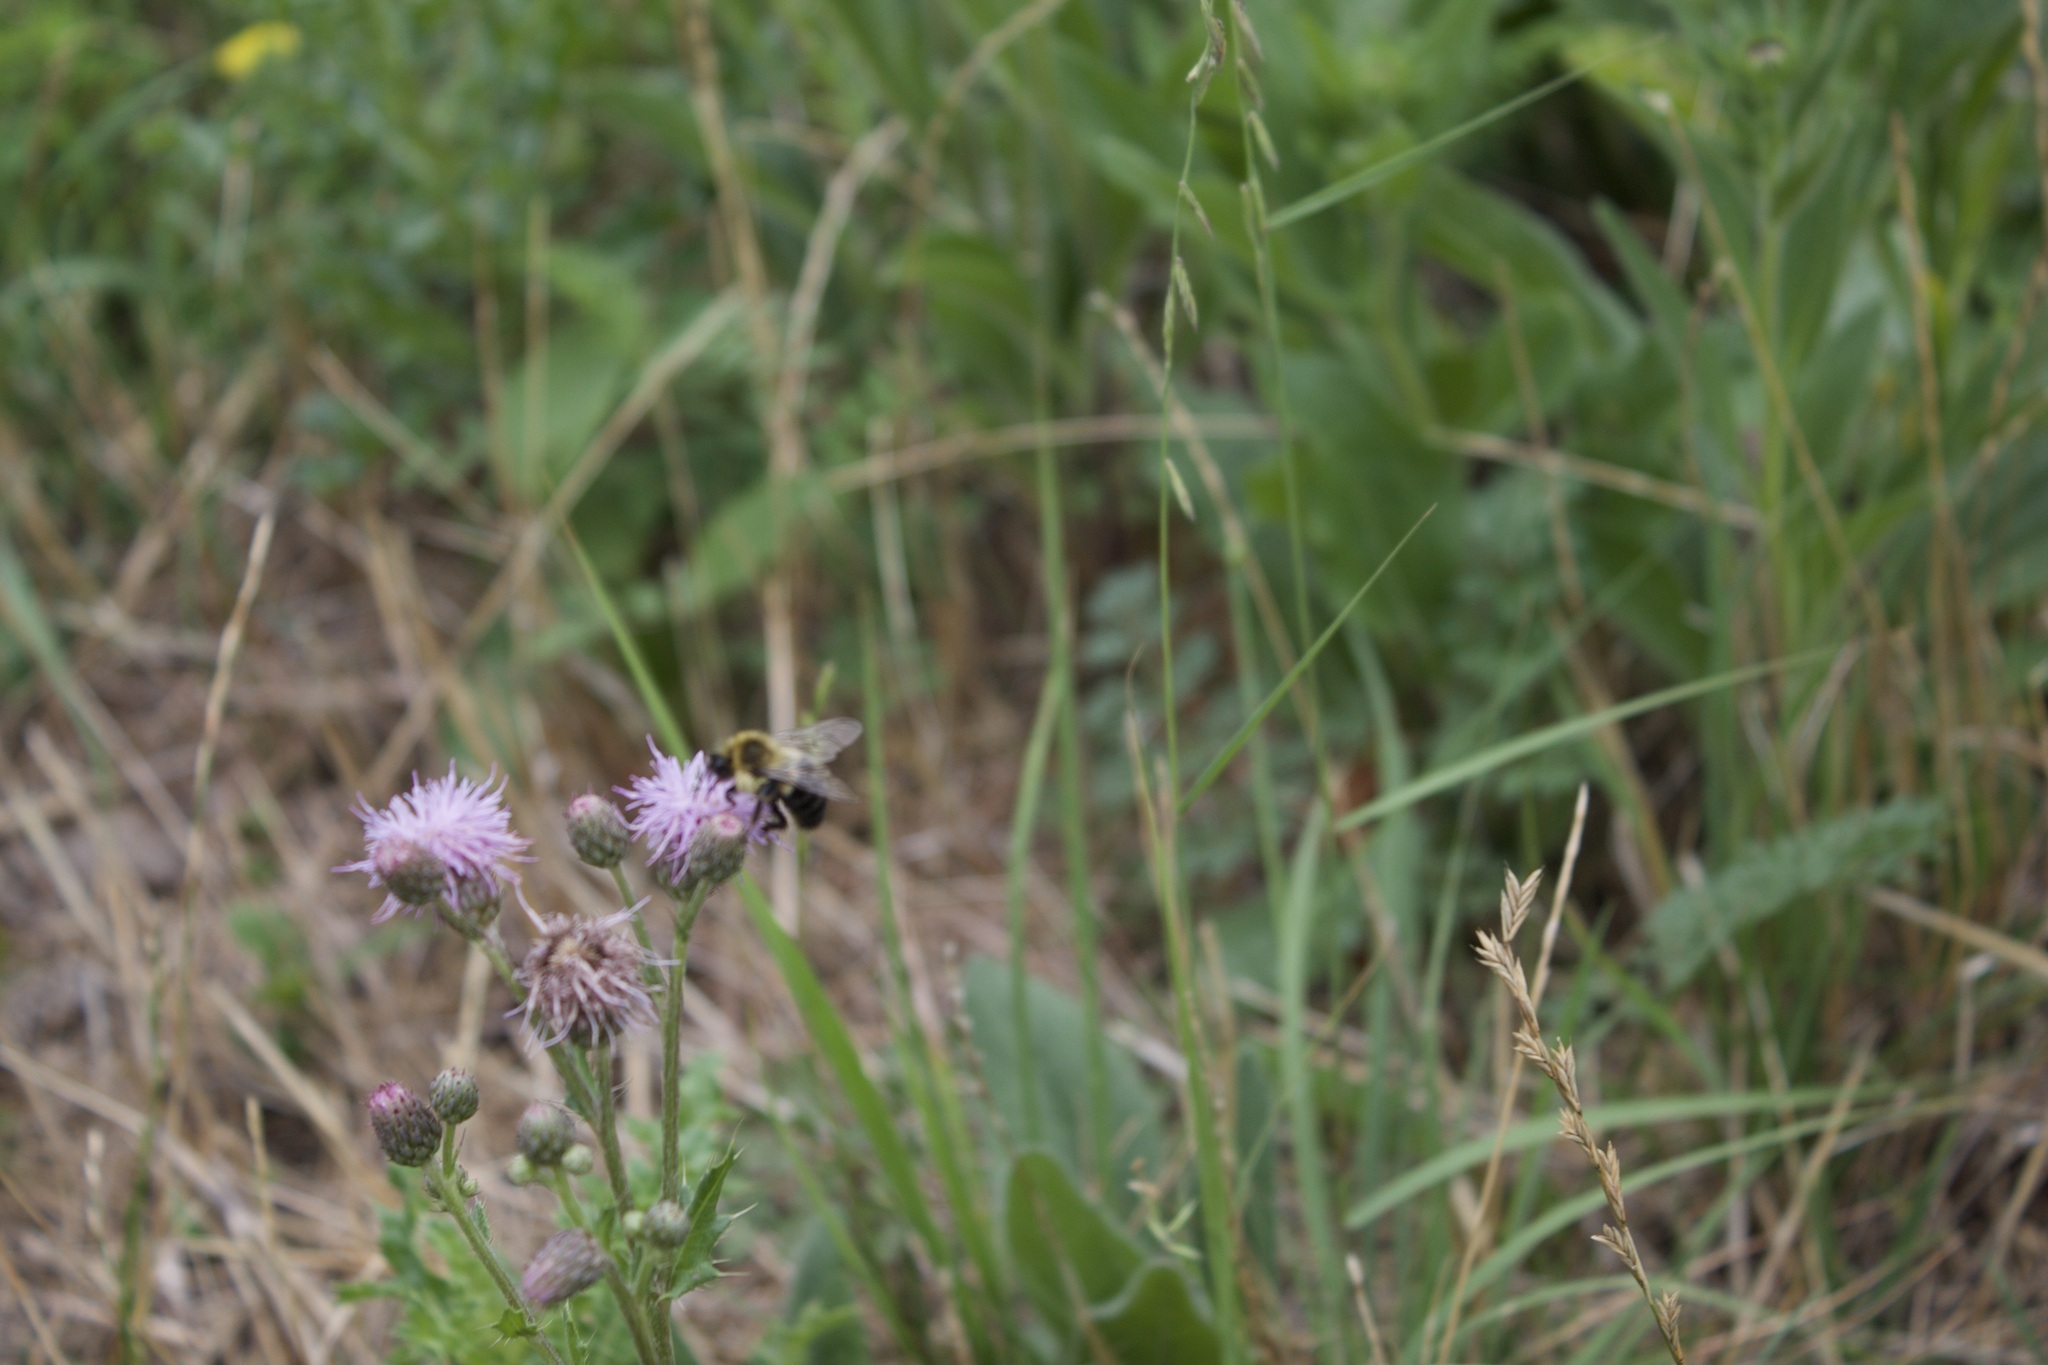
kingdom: Animalia
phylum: Arthropoda
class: Insecta
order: Hymenoptera
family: Apidae
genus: Bombus
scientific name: Bombus impatiens
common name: Common eastern bumble bee
